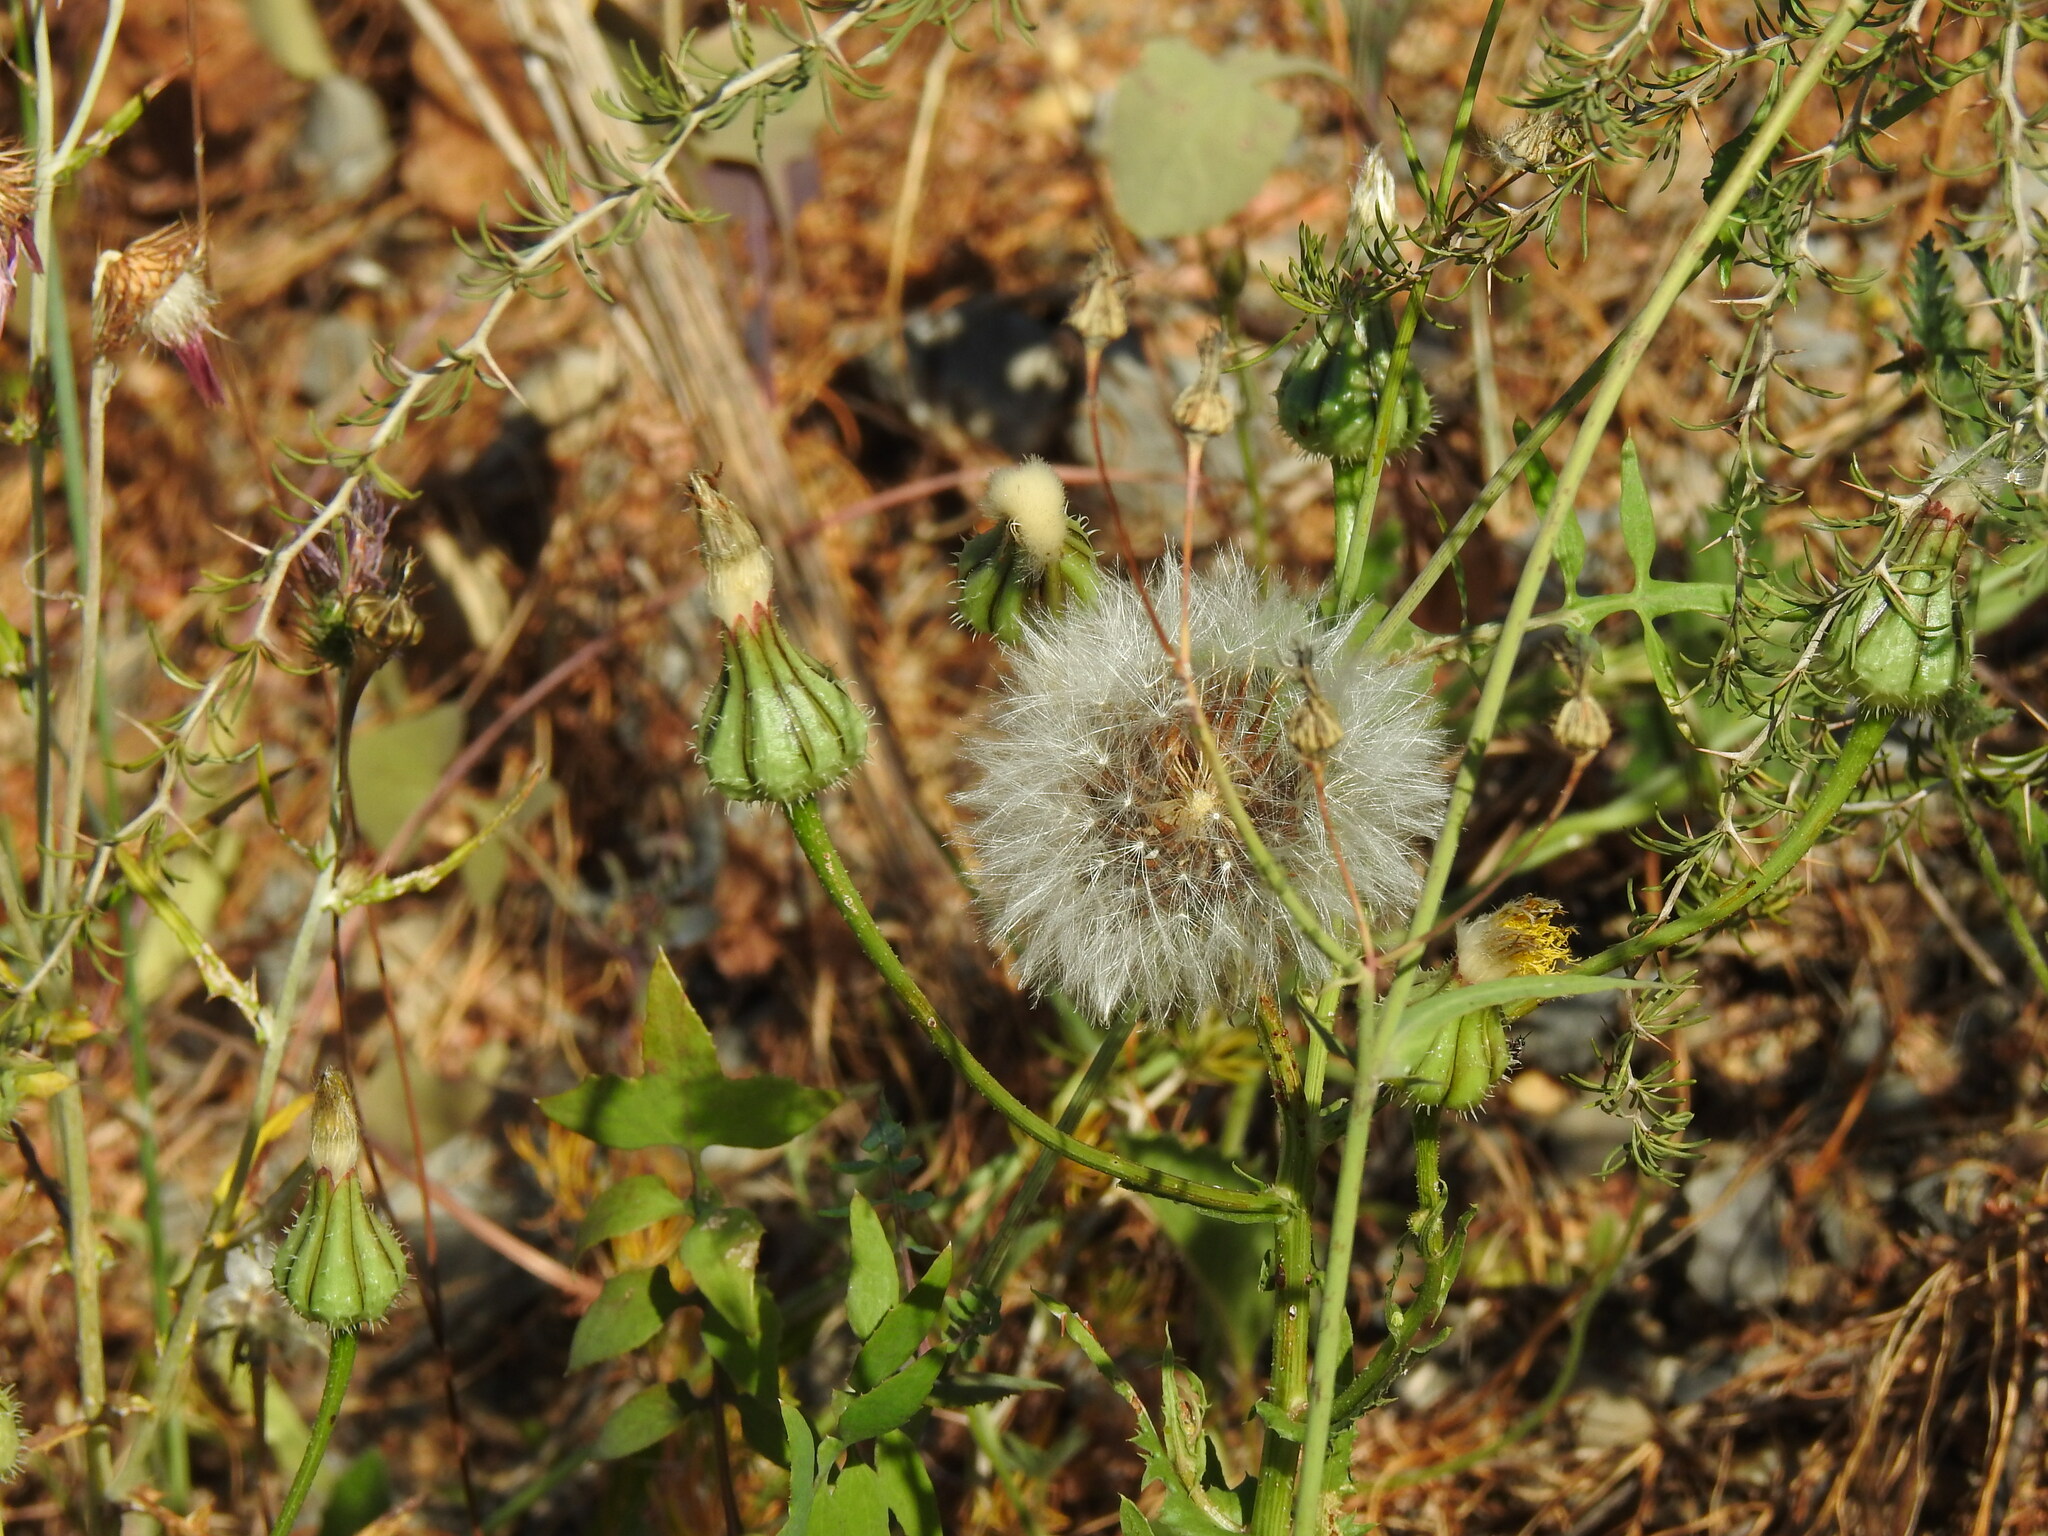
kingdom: Plantae
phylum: Tracheophyta
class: Magnoliopsida
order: Asterales
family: Asteraceae
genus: Urospermum
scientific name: Urospermum picroides
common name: False hawkbit
